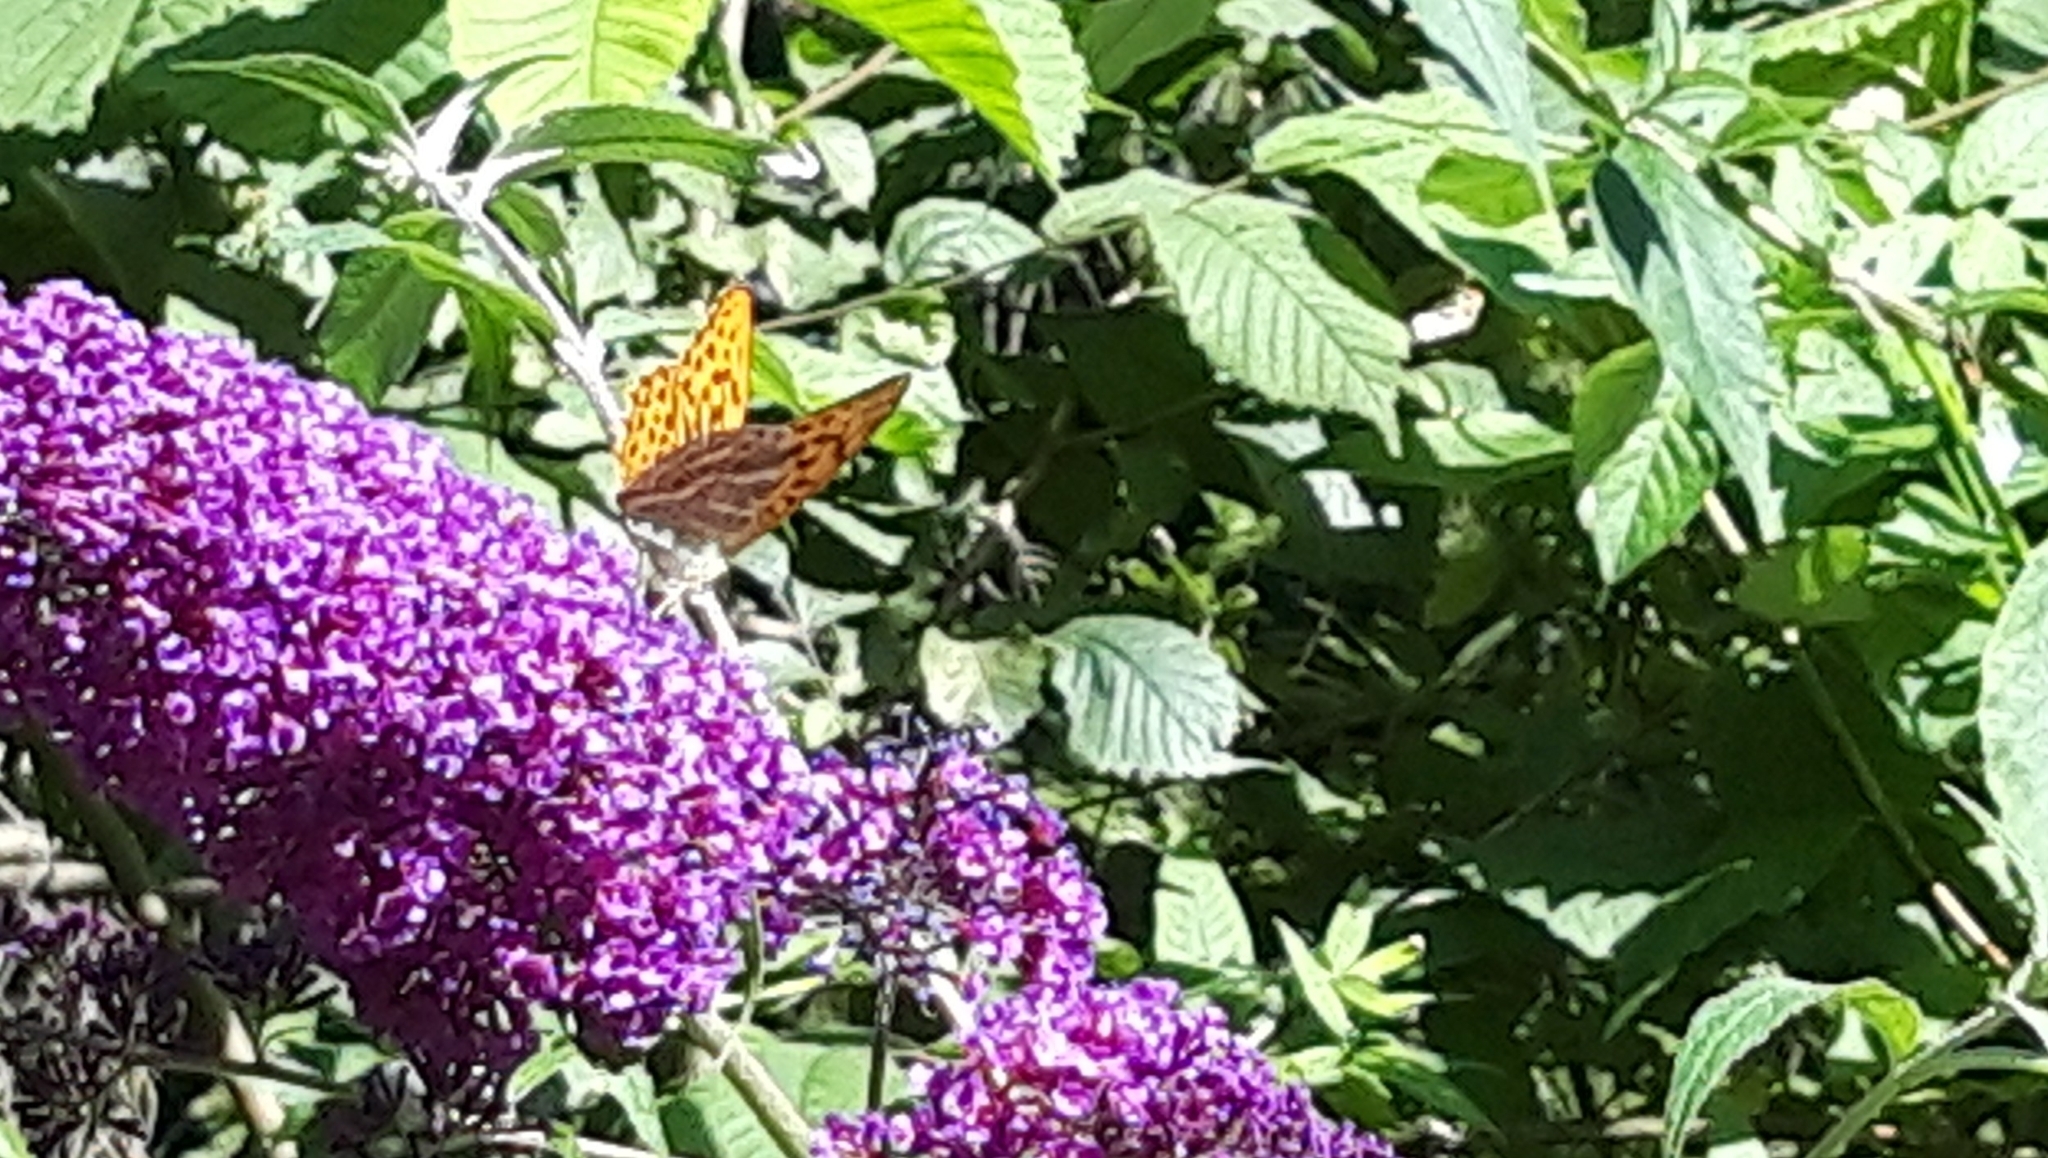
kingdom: Animalia
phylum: Arthropoda
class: Insecta
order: Lepidoptera
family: Nymphalidae
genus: Argynnis
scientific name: Argynnis paphia
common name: Silver-washed fritillary
